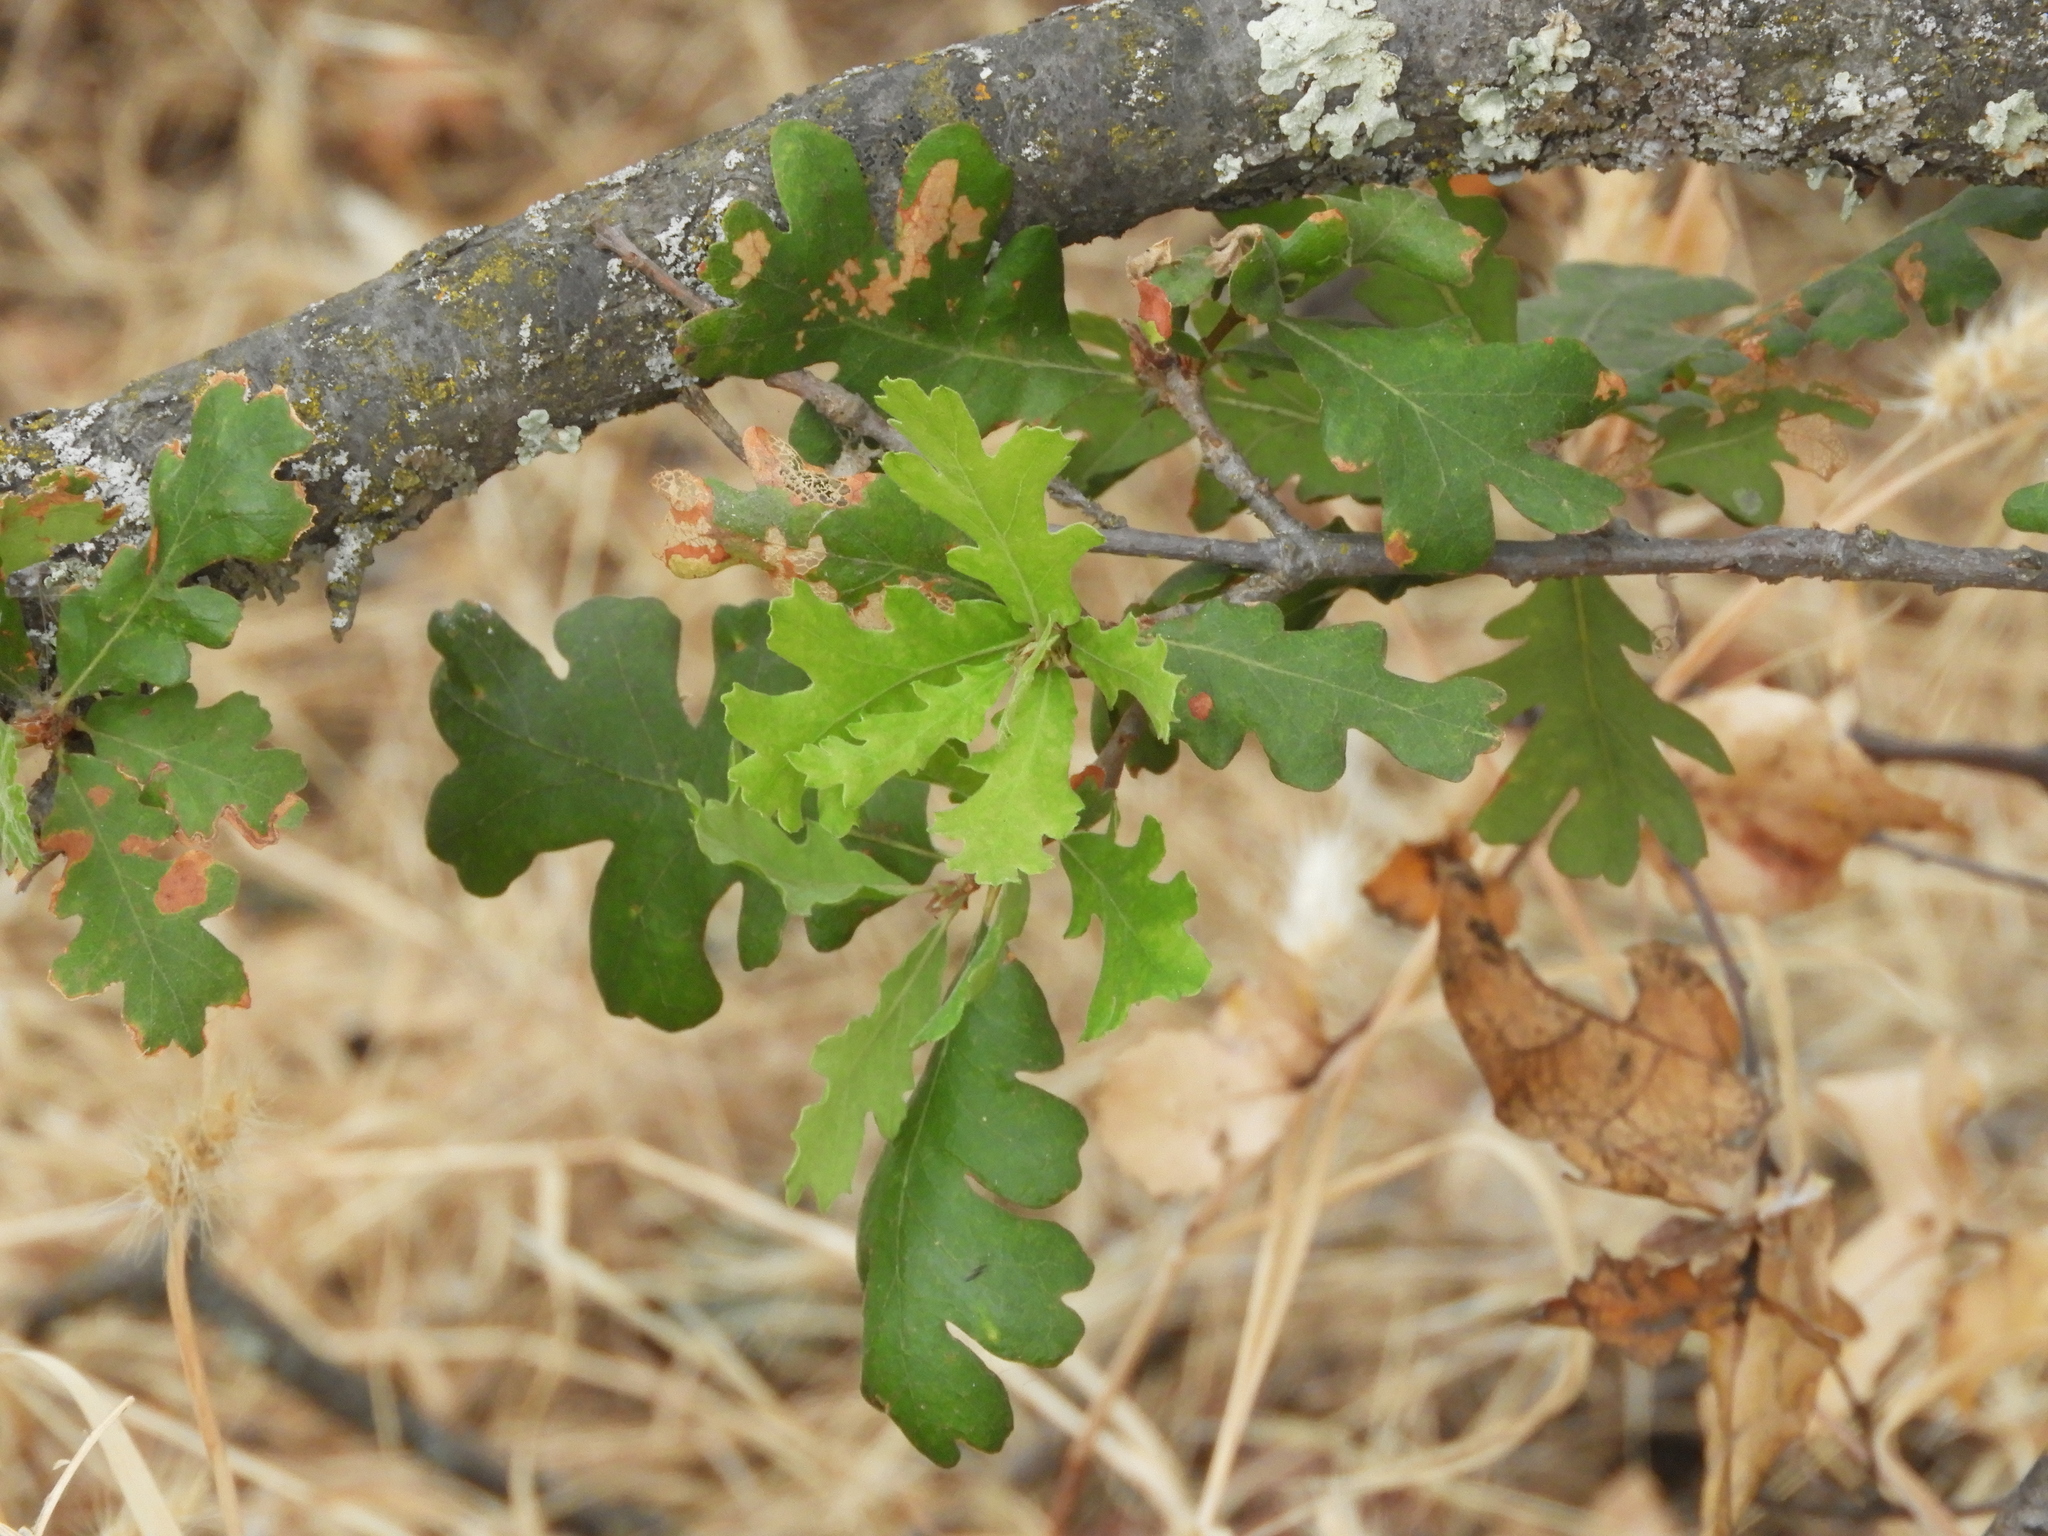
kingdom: Plantae
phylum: Tracheophyta
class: Magnoliopsida
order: Fagales
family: Fagaceae
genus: Quercus
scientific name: Quercus lobata
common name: Valley oak
